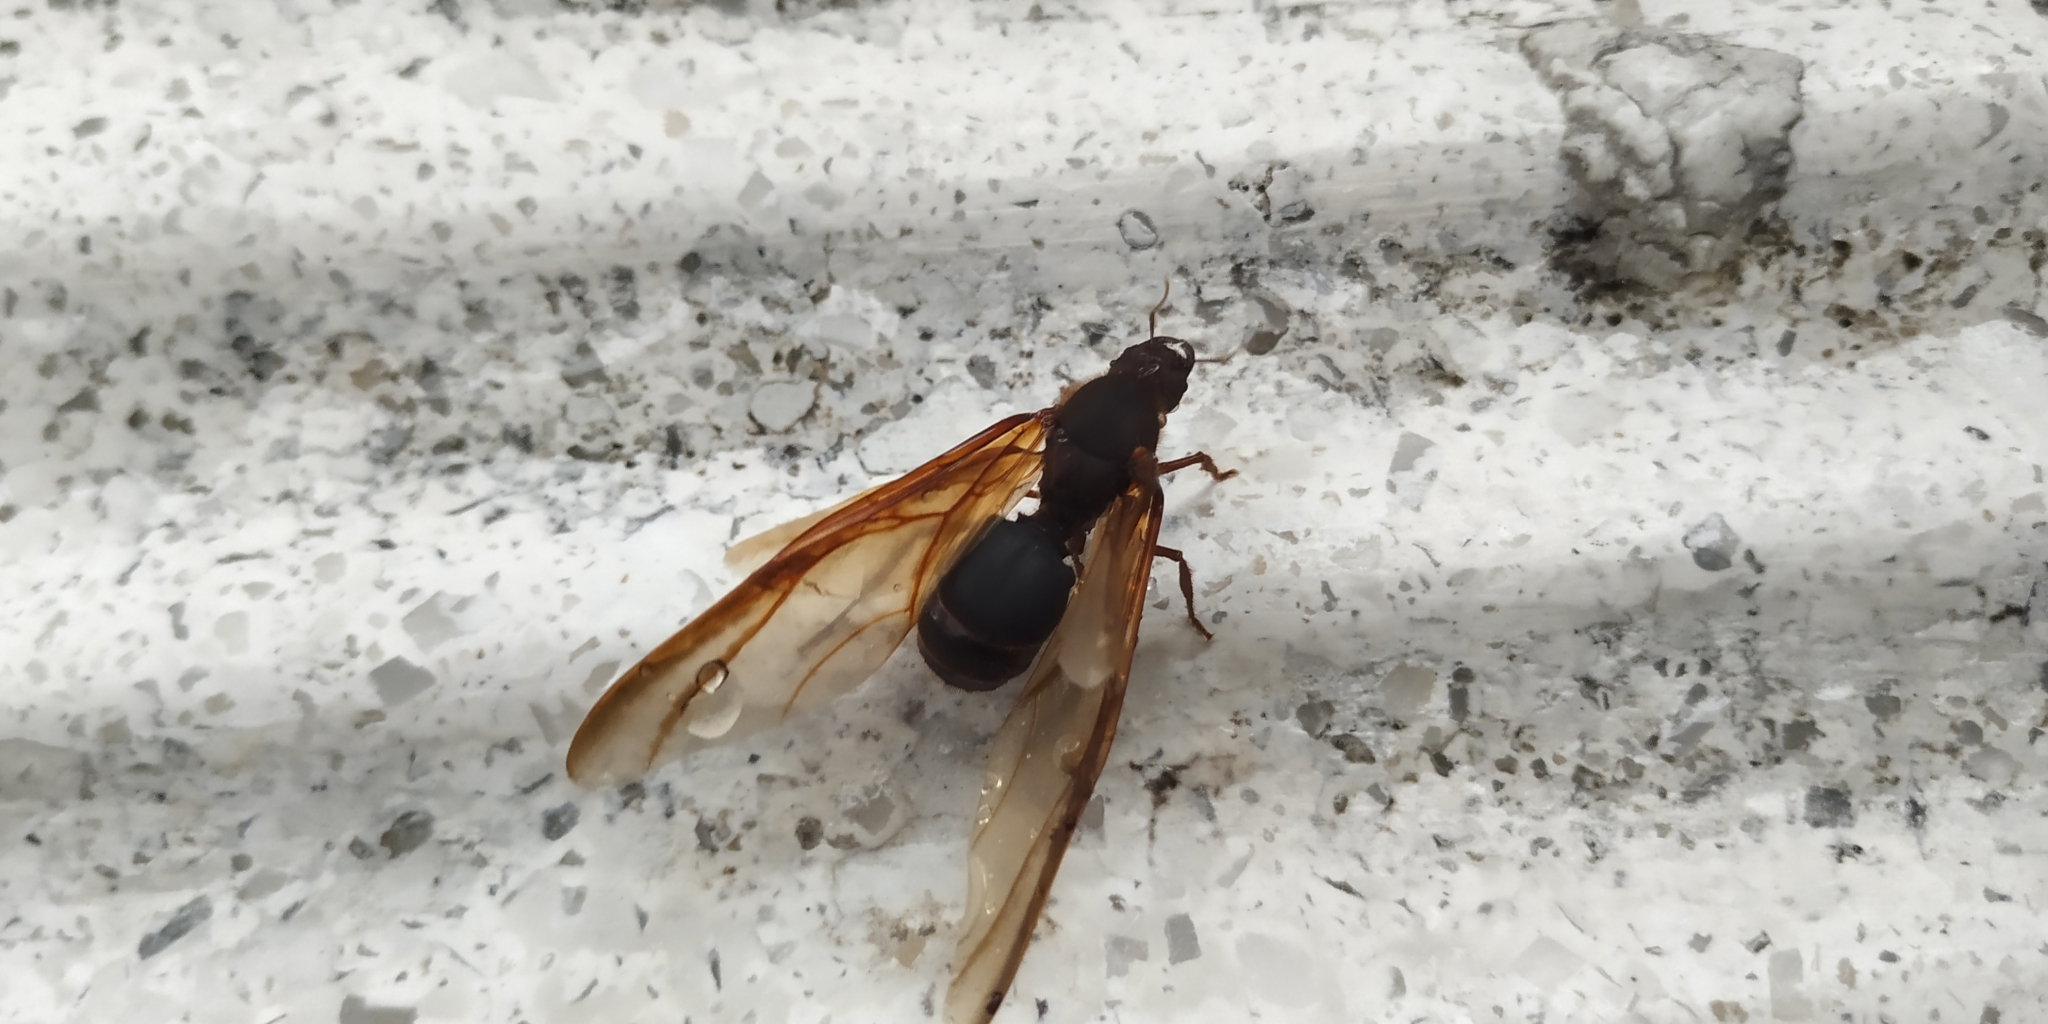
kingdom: Animalia
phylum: Arthropoda
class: Insecta
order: Hymenoptera
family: Formicidae
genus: Atta
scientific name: Atta mexicana
